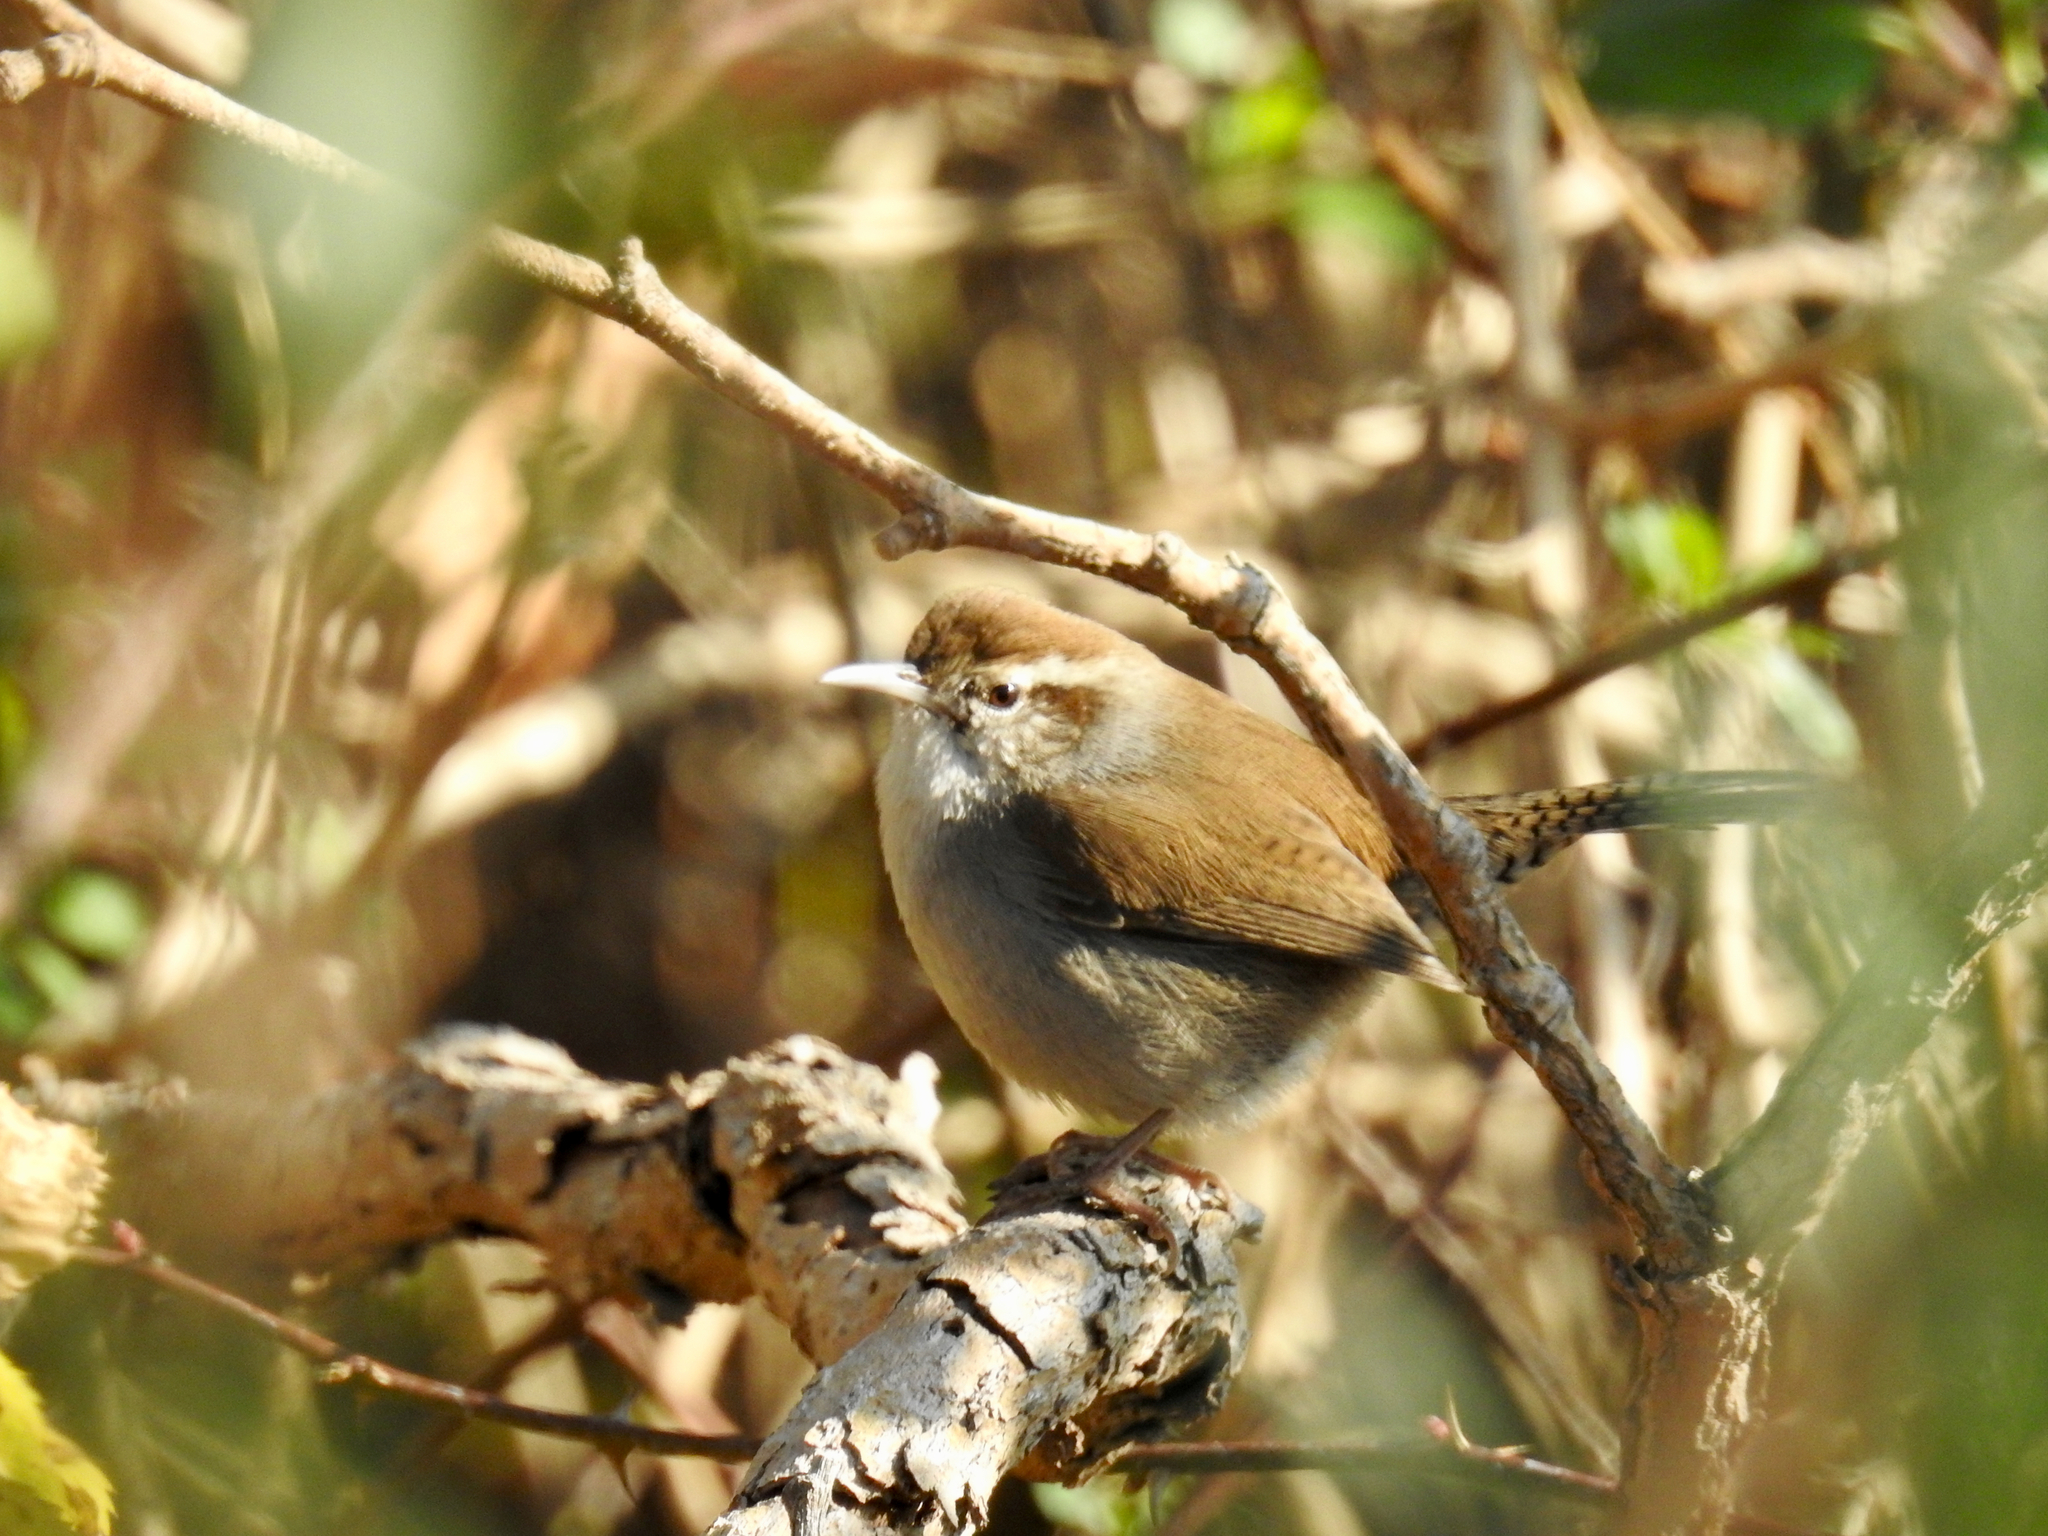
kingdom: Animalia
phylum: Chordata
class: Aves
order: Passeriformes
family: Troglodytidae
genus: Thryomanes
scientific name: Thryomanes bewickii
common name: Bewick's wren
